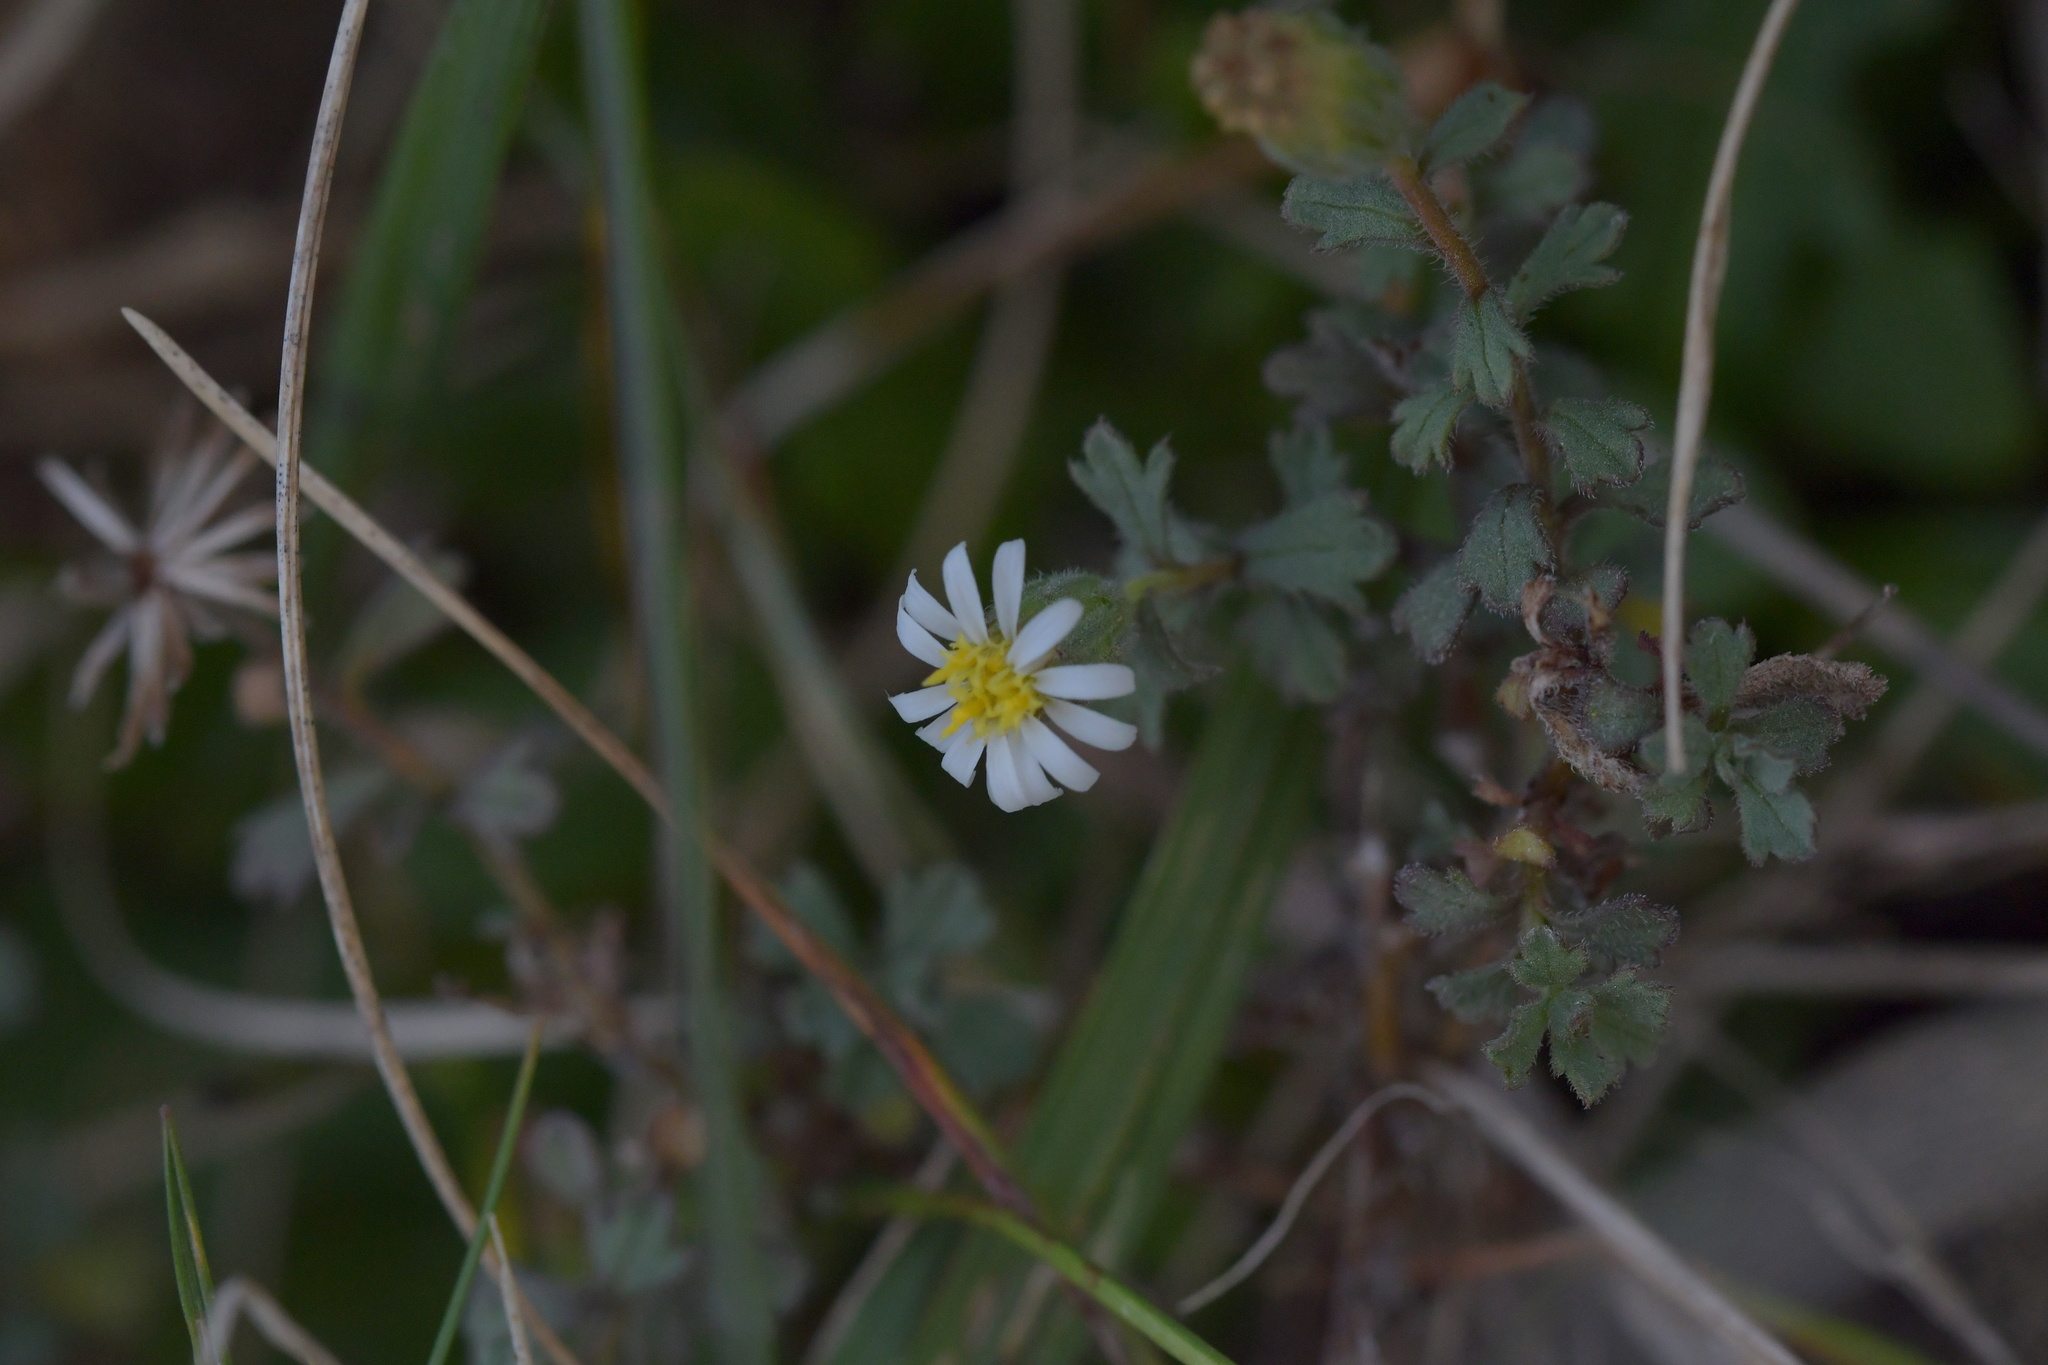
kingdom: Plantae
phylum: Tracheophyta
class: Magnoliopsida
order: Asterales
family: Asteraceae
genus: Vittadinia
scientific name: Vittadinia australis
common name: White fuzzweed
